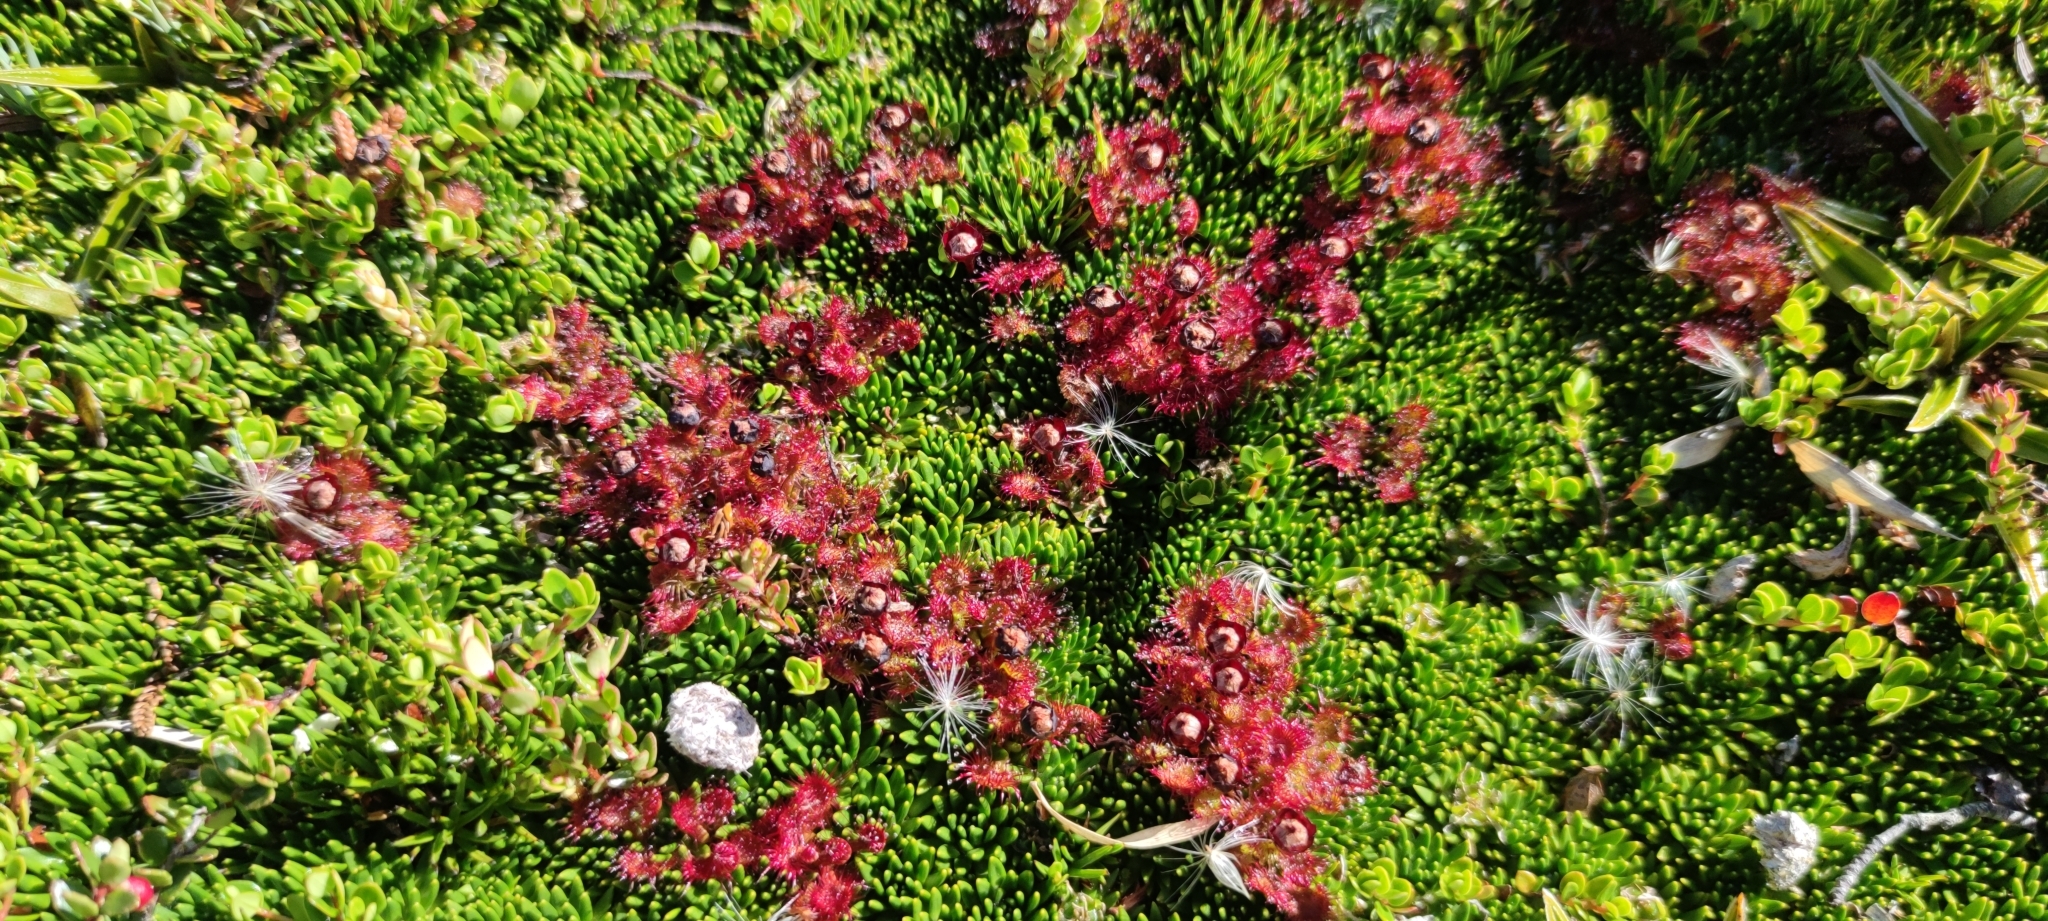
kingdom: Plantae
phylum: Tracheophyta
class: Magnoliopsida
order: Caryophyllales
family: Droseraceae
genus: Drosera
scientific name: Drosera uniflora
